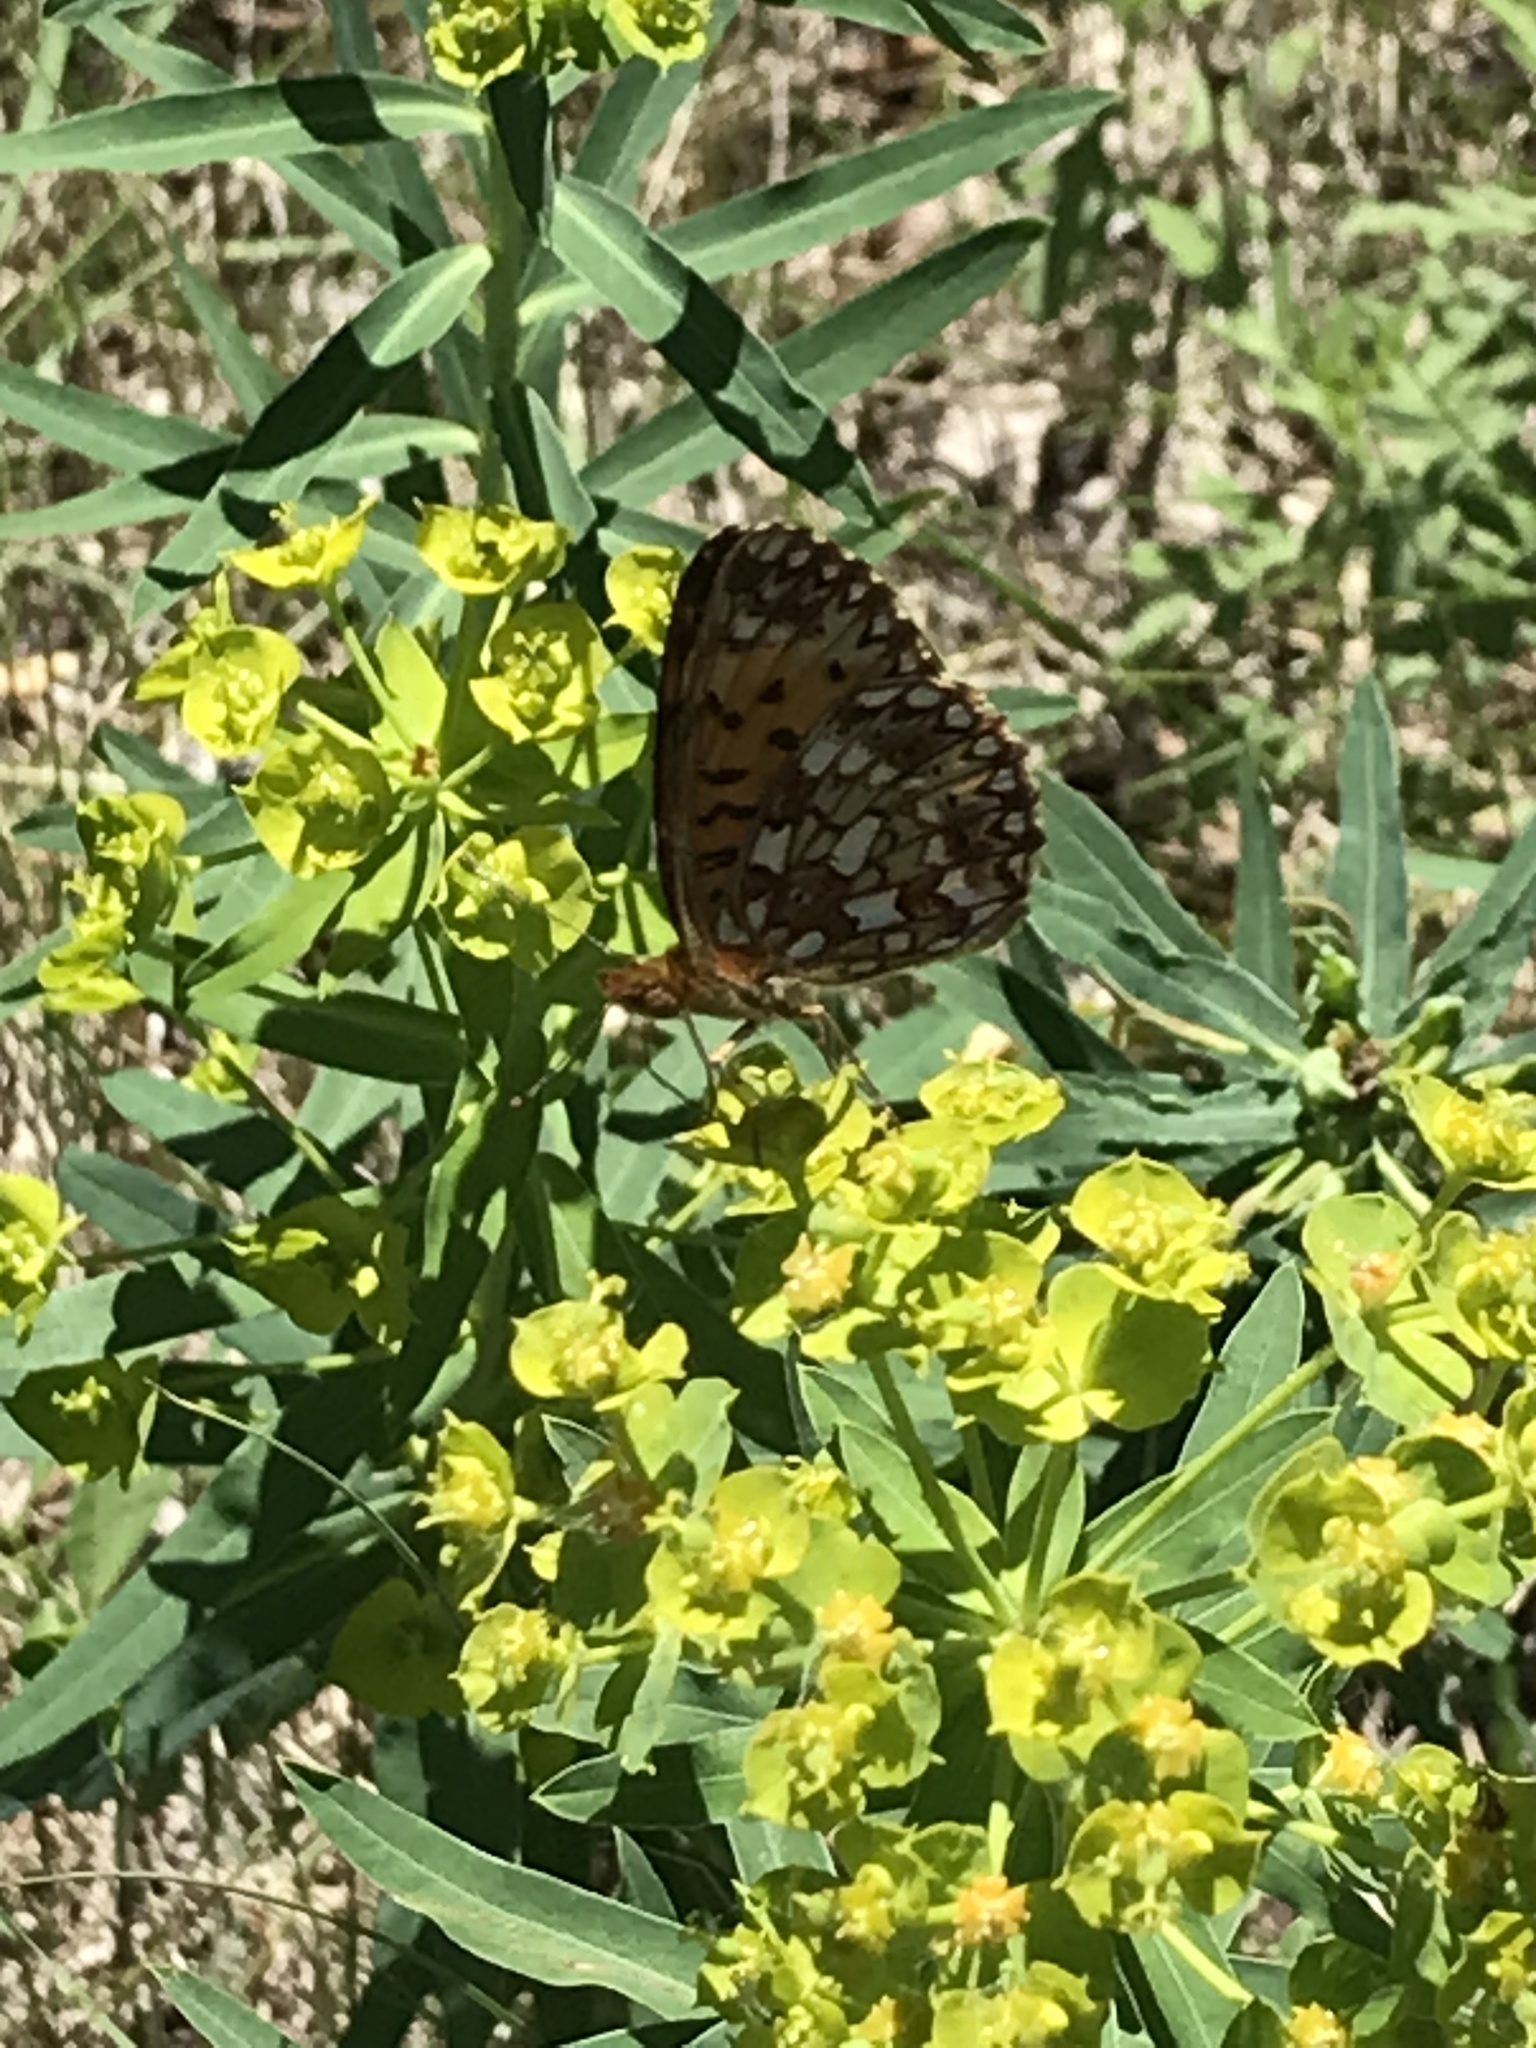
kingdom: Animalia
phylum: Arthropoda
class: Insecta
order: Lepidoptera
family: Nymphalidae
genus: Boloria
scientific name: Boloria
